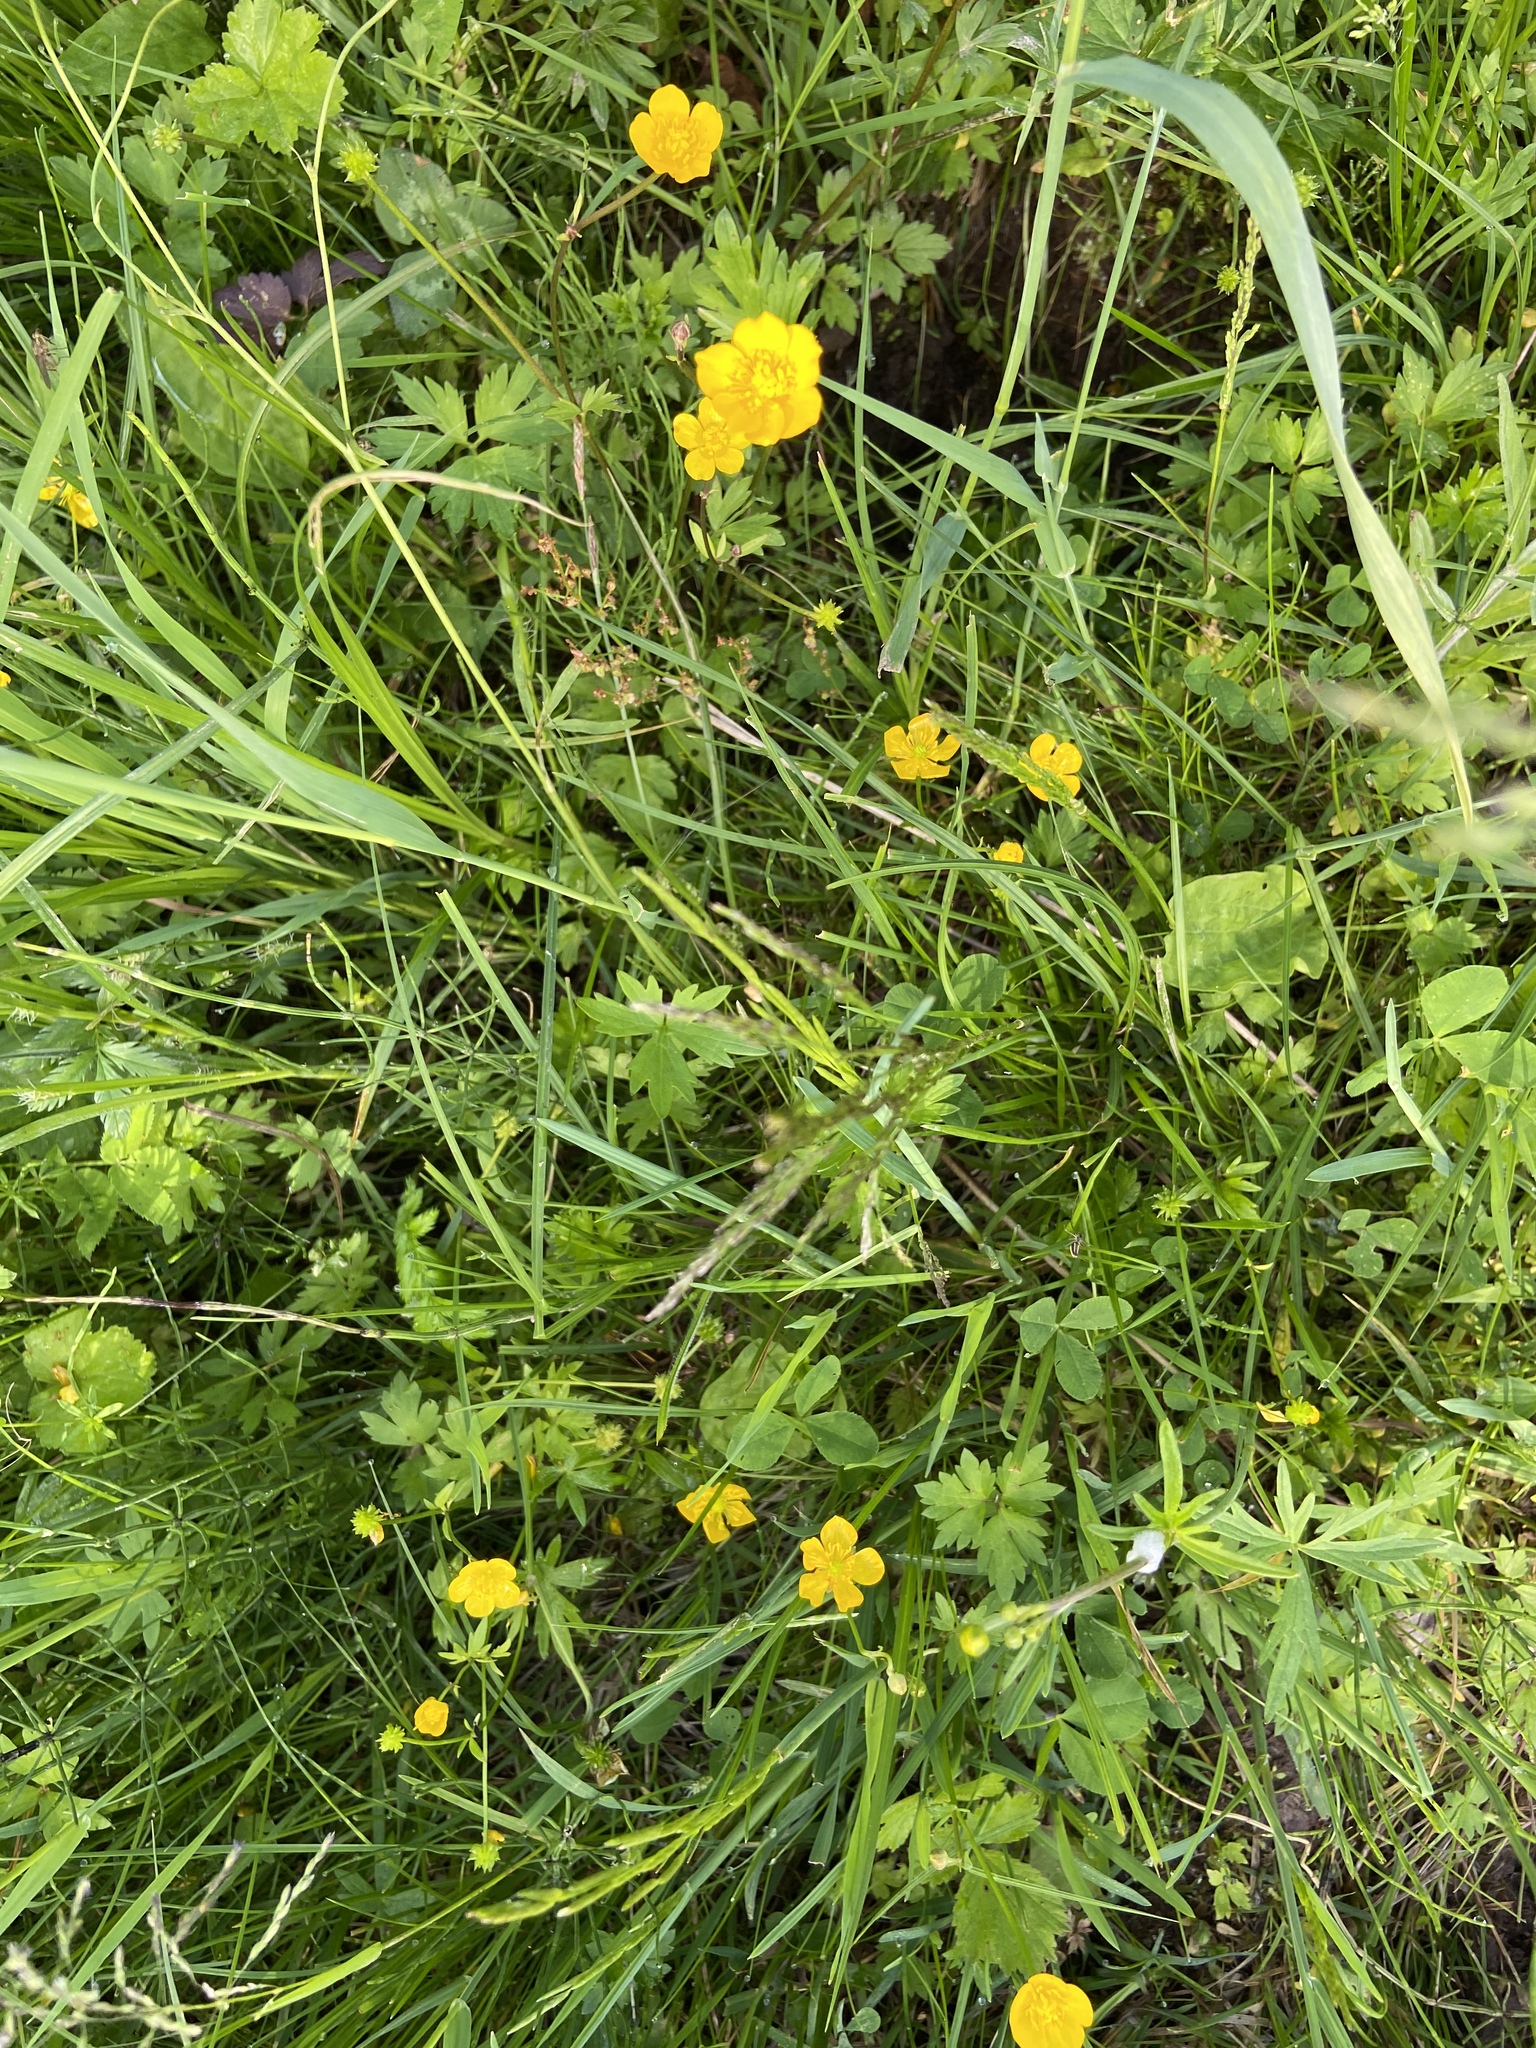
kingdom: Plantae
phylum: Tracheophyta
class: Magnoliopsida
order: Ranunculales
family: Ranunculaceae
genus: Ranunculus
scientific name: Ranunculus repens
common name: Creeping buttercup
